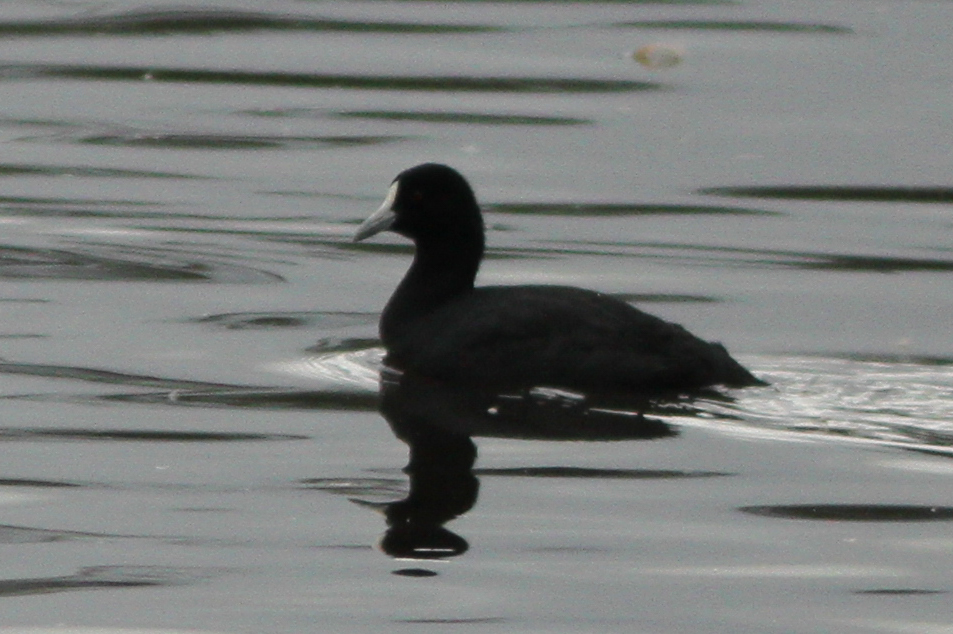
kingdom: Animalia
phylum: Chordata
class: Aves
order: Gruiformes
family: Rallidae
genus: Fulica
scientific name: Fulica atra
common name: Eurasian coot
